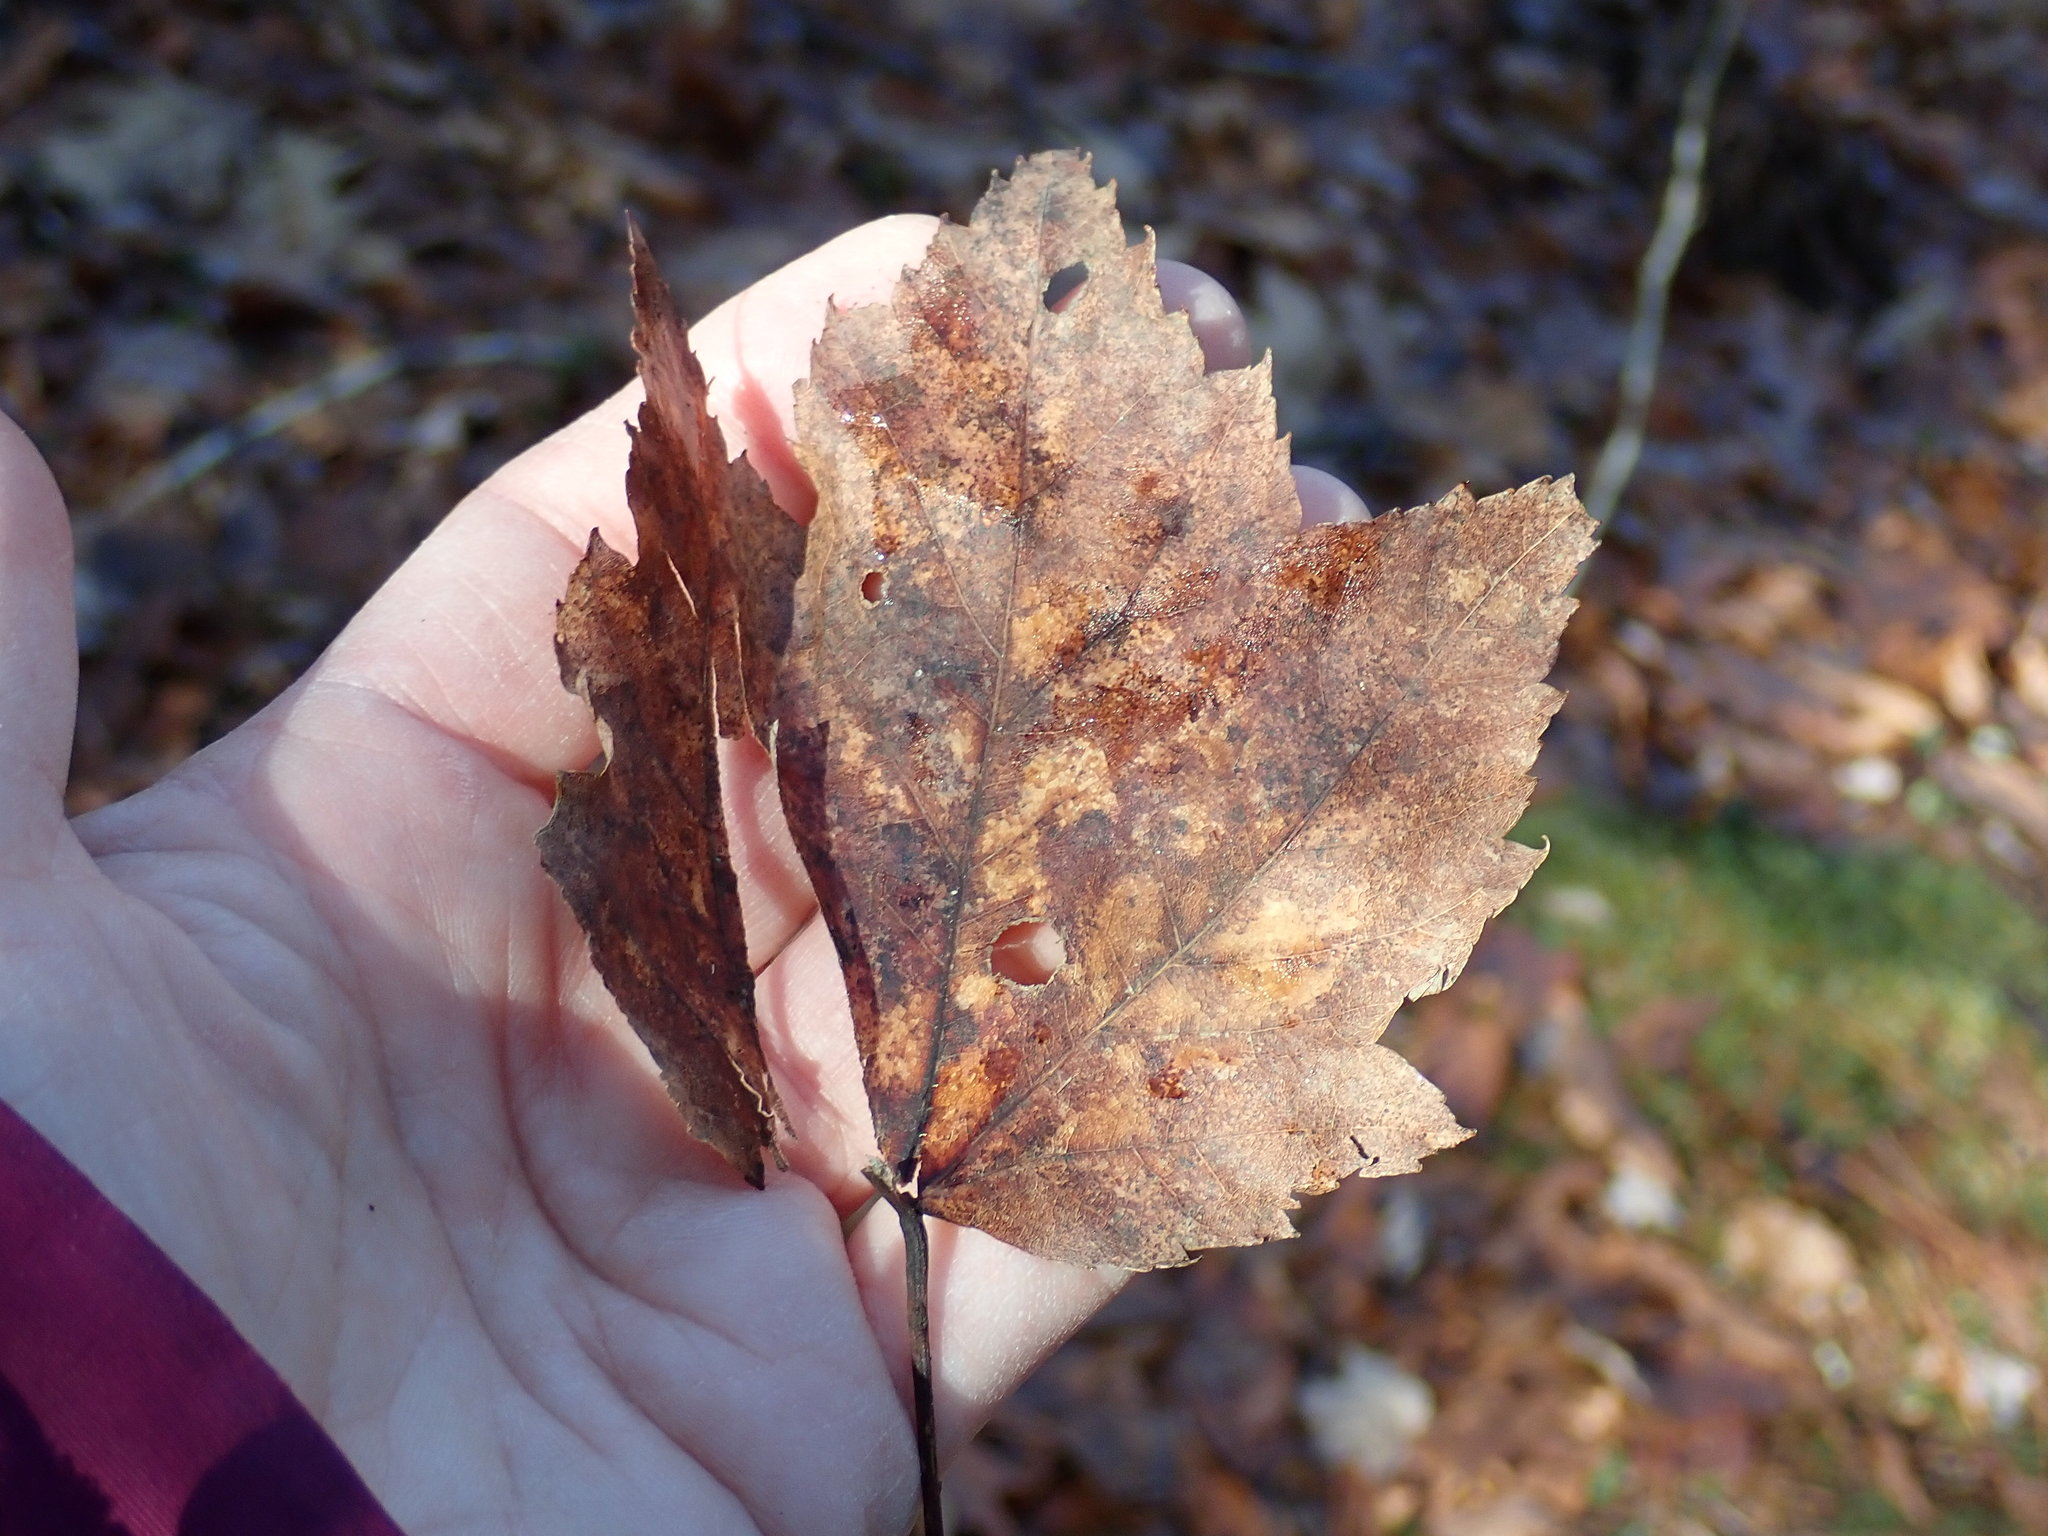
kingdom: Plantae
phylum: Tracheophyta
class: Magnoliopsida
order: Sapindales
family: Sapindaceae
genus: Acer
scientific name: Acer rubrum
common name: Red maple
